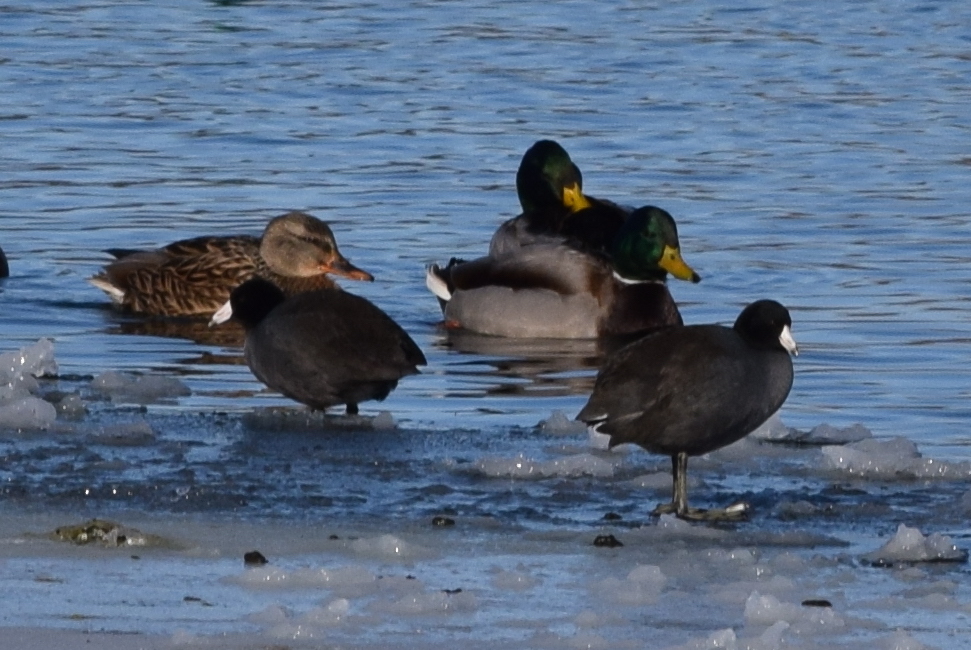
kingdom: Animalia
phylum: Chordata
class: Aves
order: Gruiformes
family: Rallidae
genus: Fulica
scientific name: Fulica americana
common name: American coot
